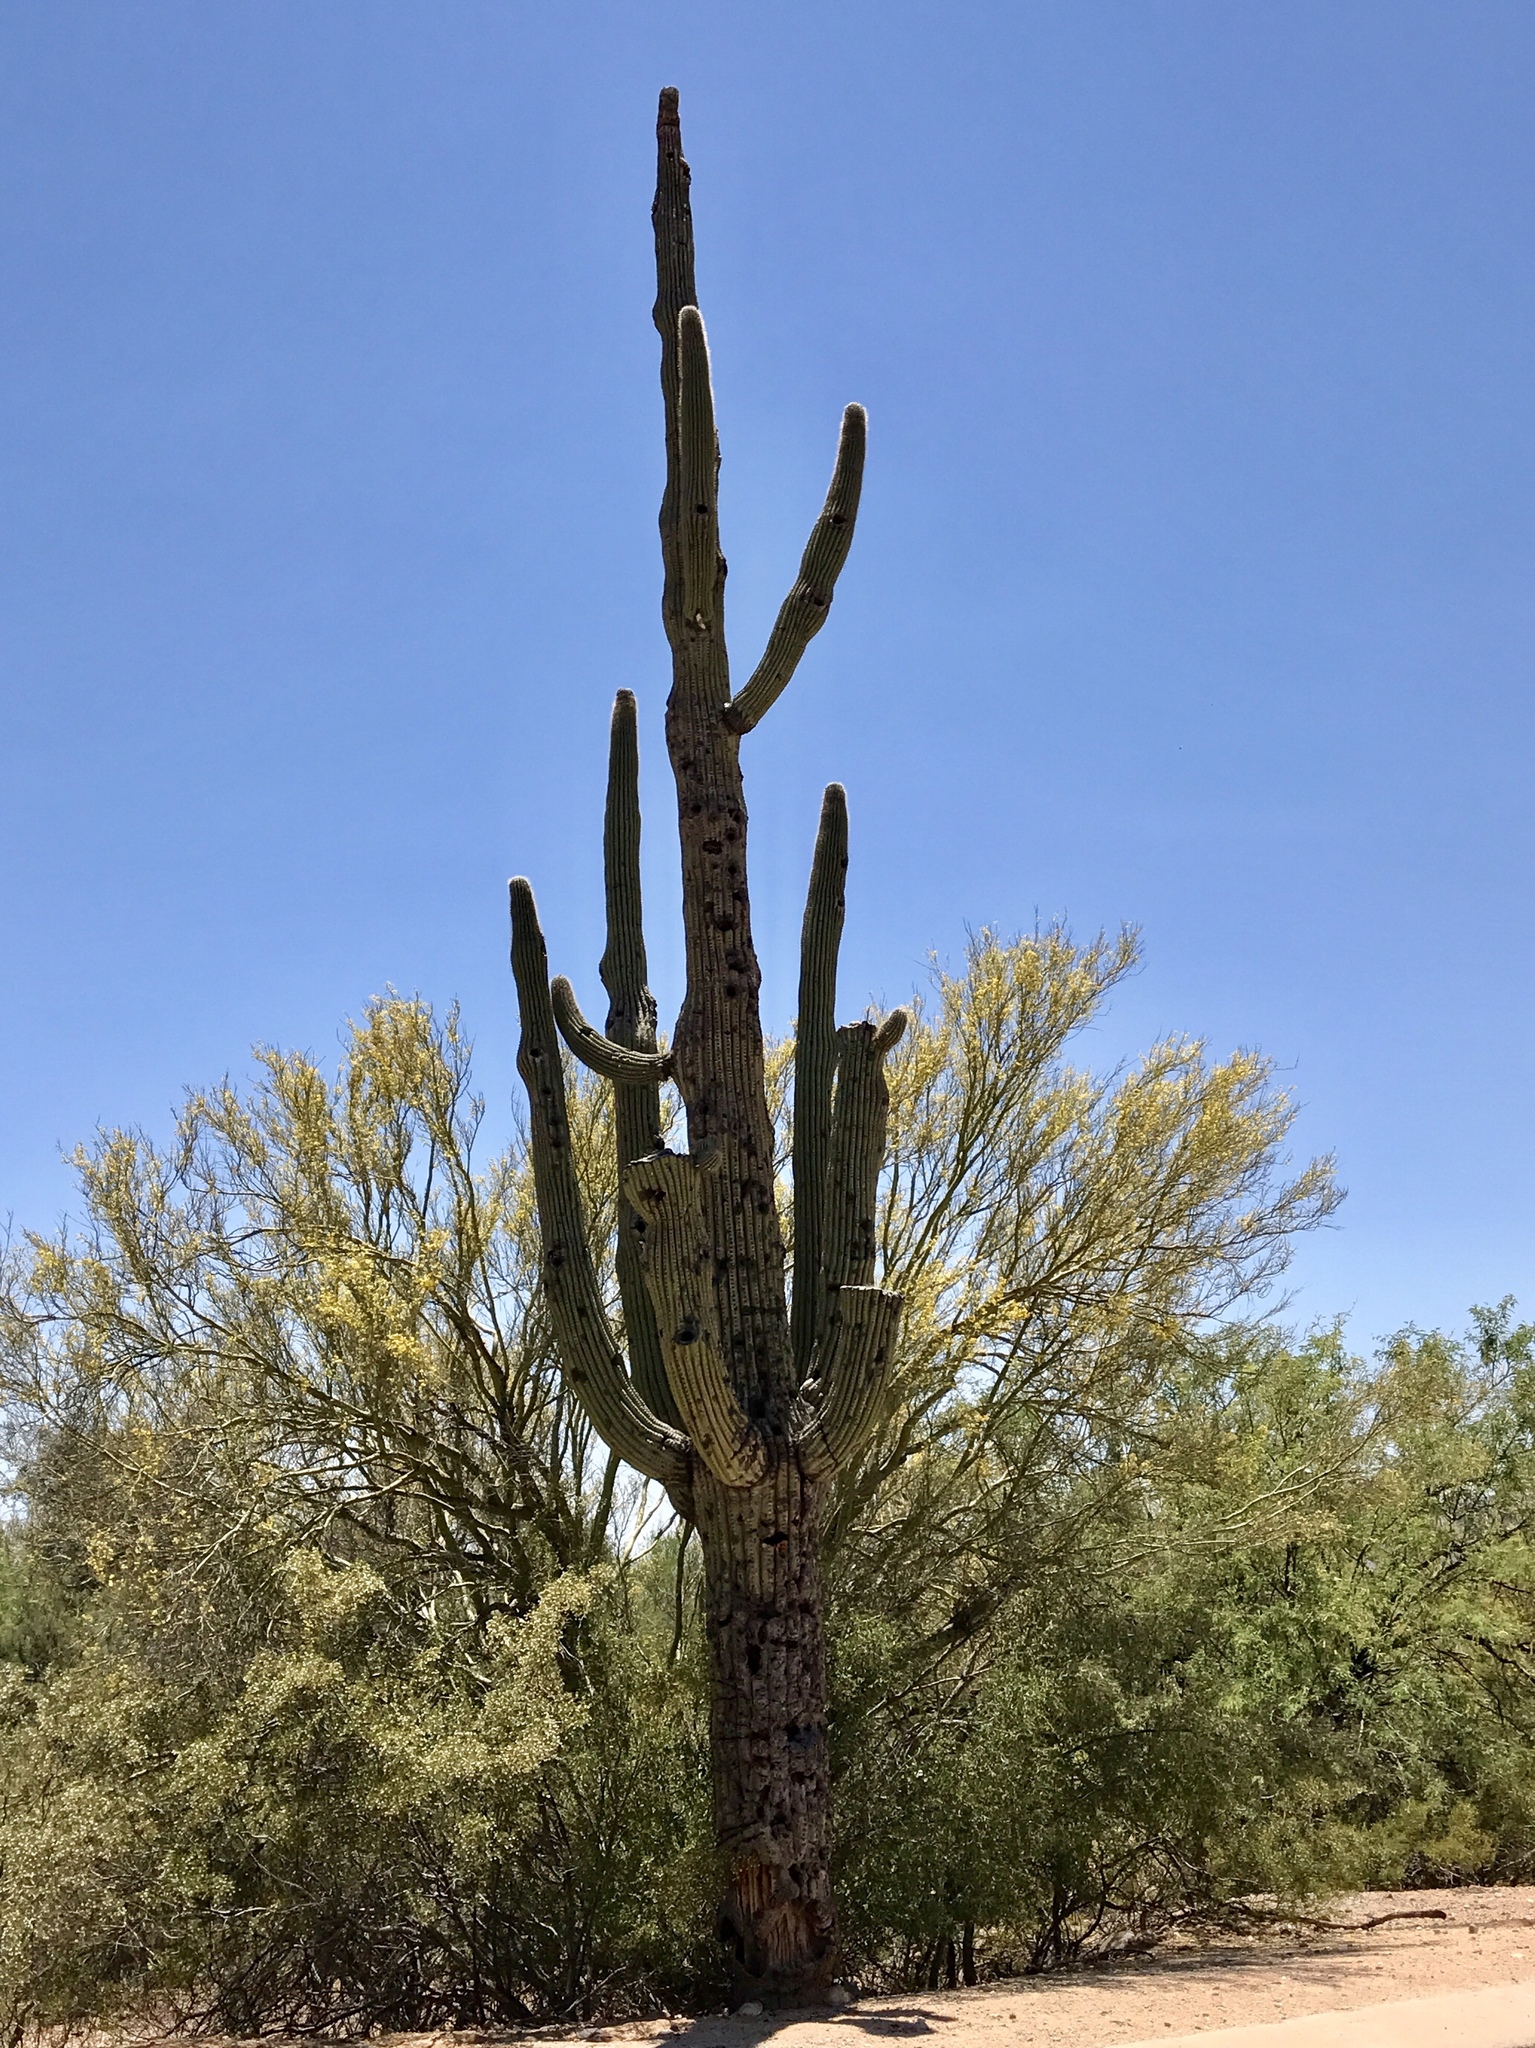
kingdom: Plantae
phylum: Tracheophyta
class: Magnoliopsida
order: Caryophyllales
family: Cactaceae
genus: Carnegiea
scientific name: Carnegiea gigantea
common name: Saguaro
